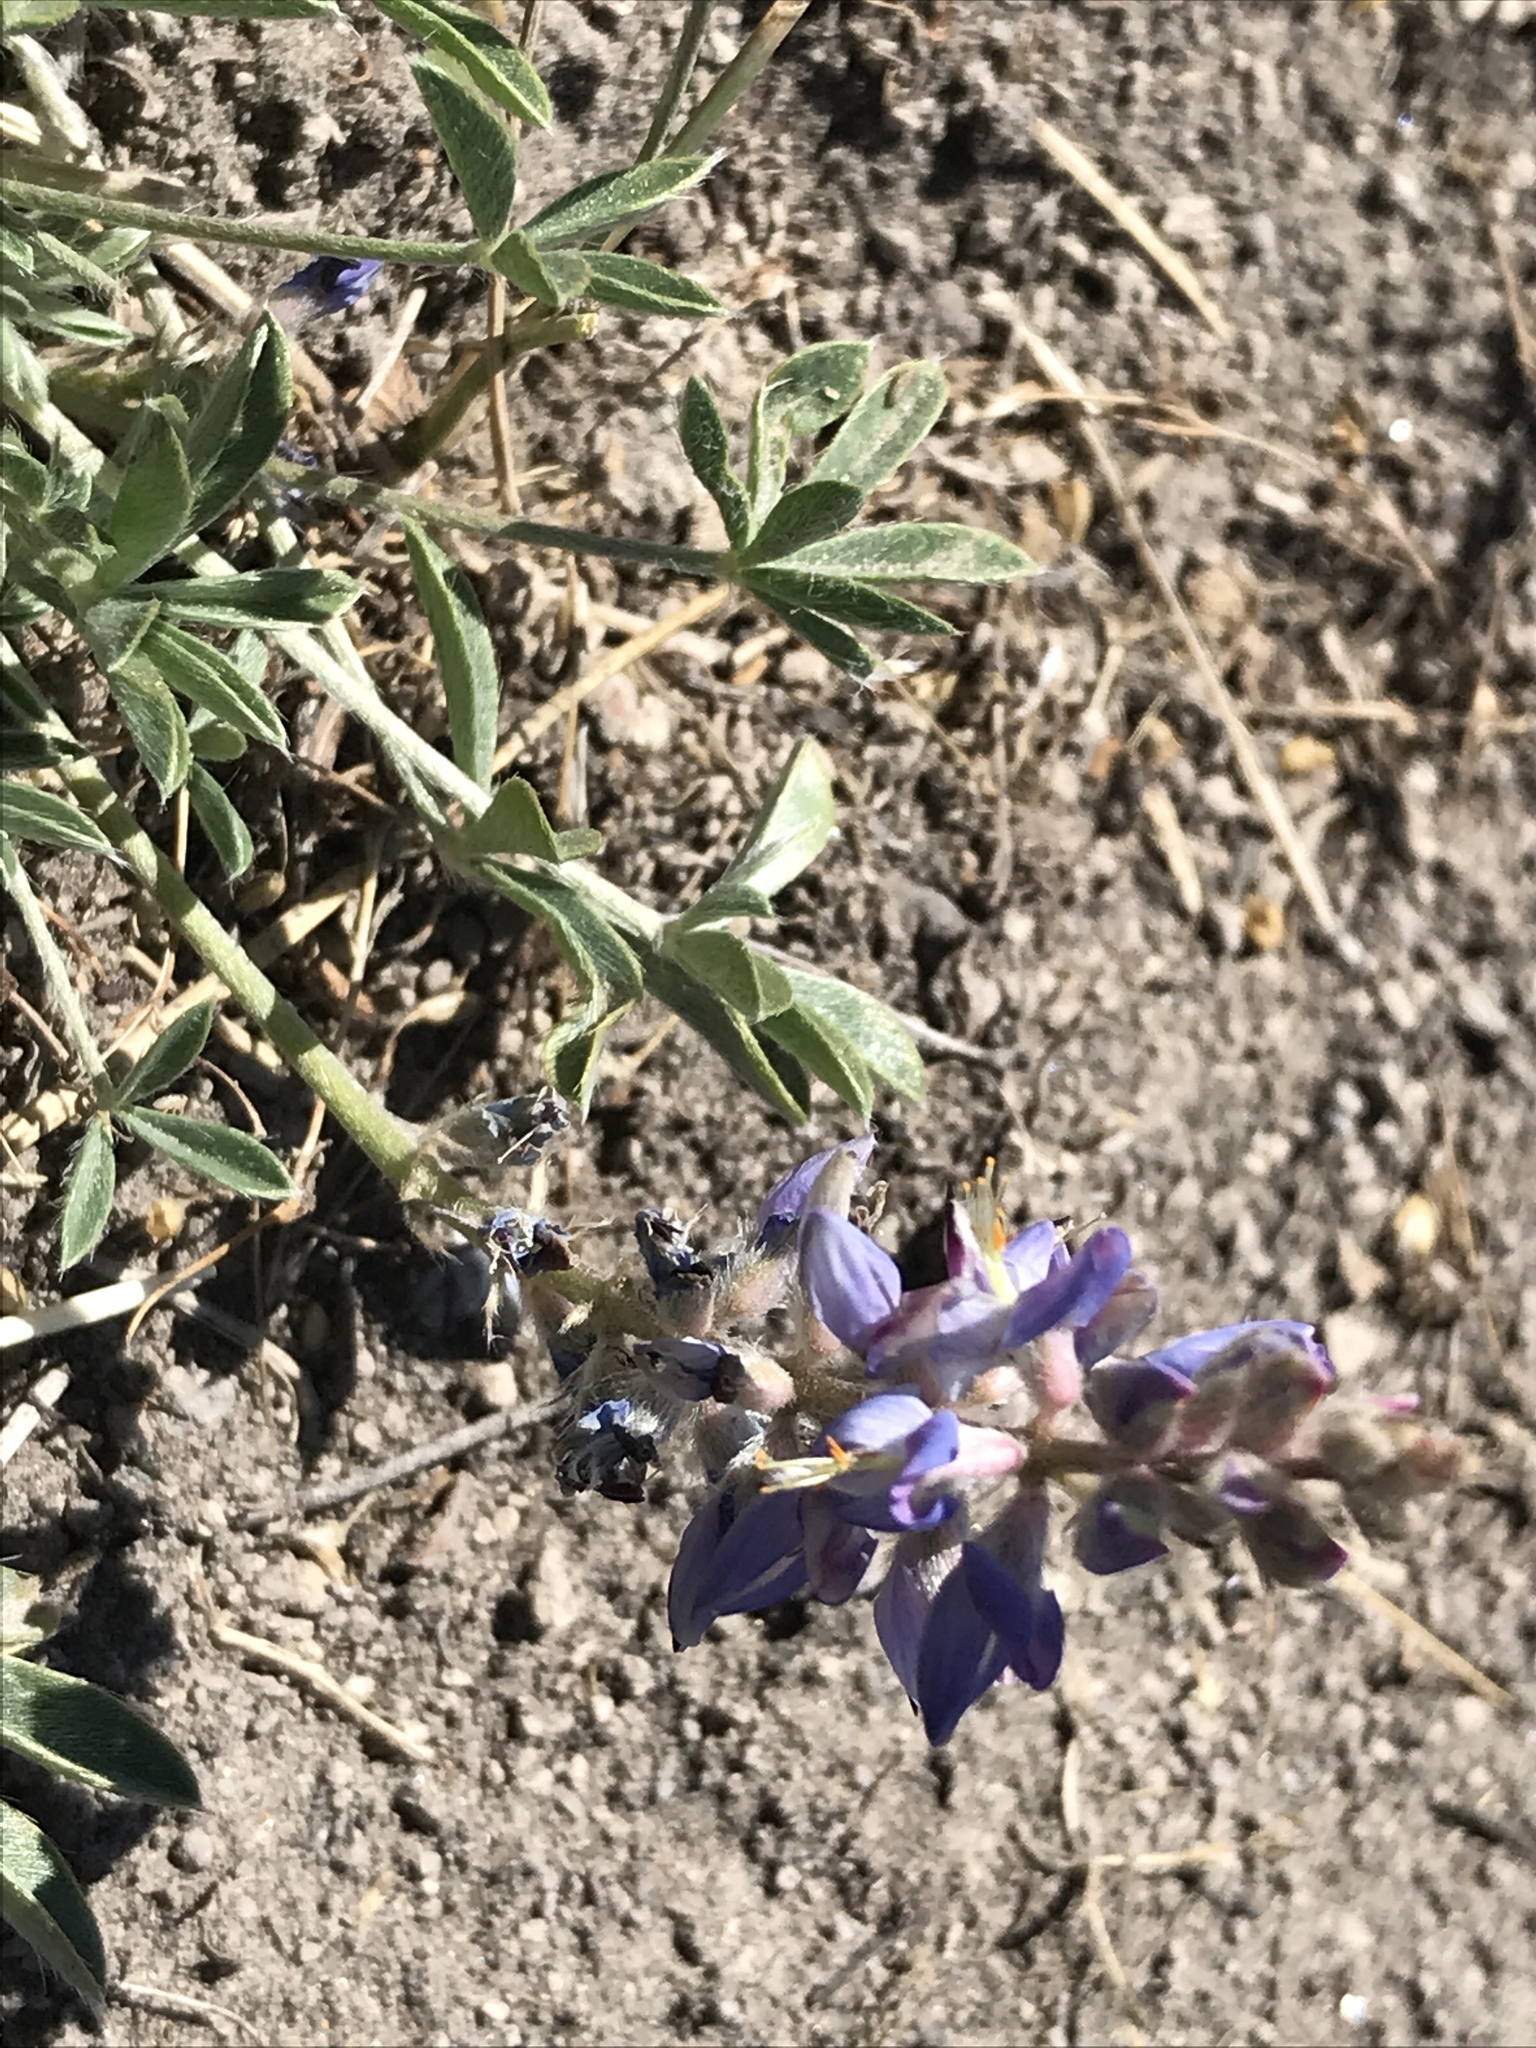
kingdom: Plantae
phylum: Tracheophyta
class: Magnoliopsida
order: Fabales
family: Fabaceae
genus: Lupinus
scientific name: Lupinus lepidus
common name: Prairie lupine
